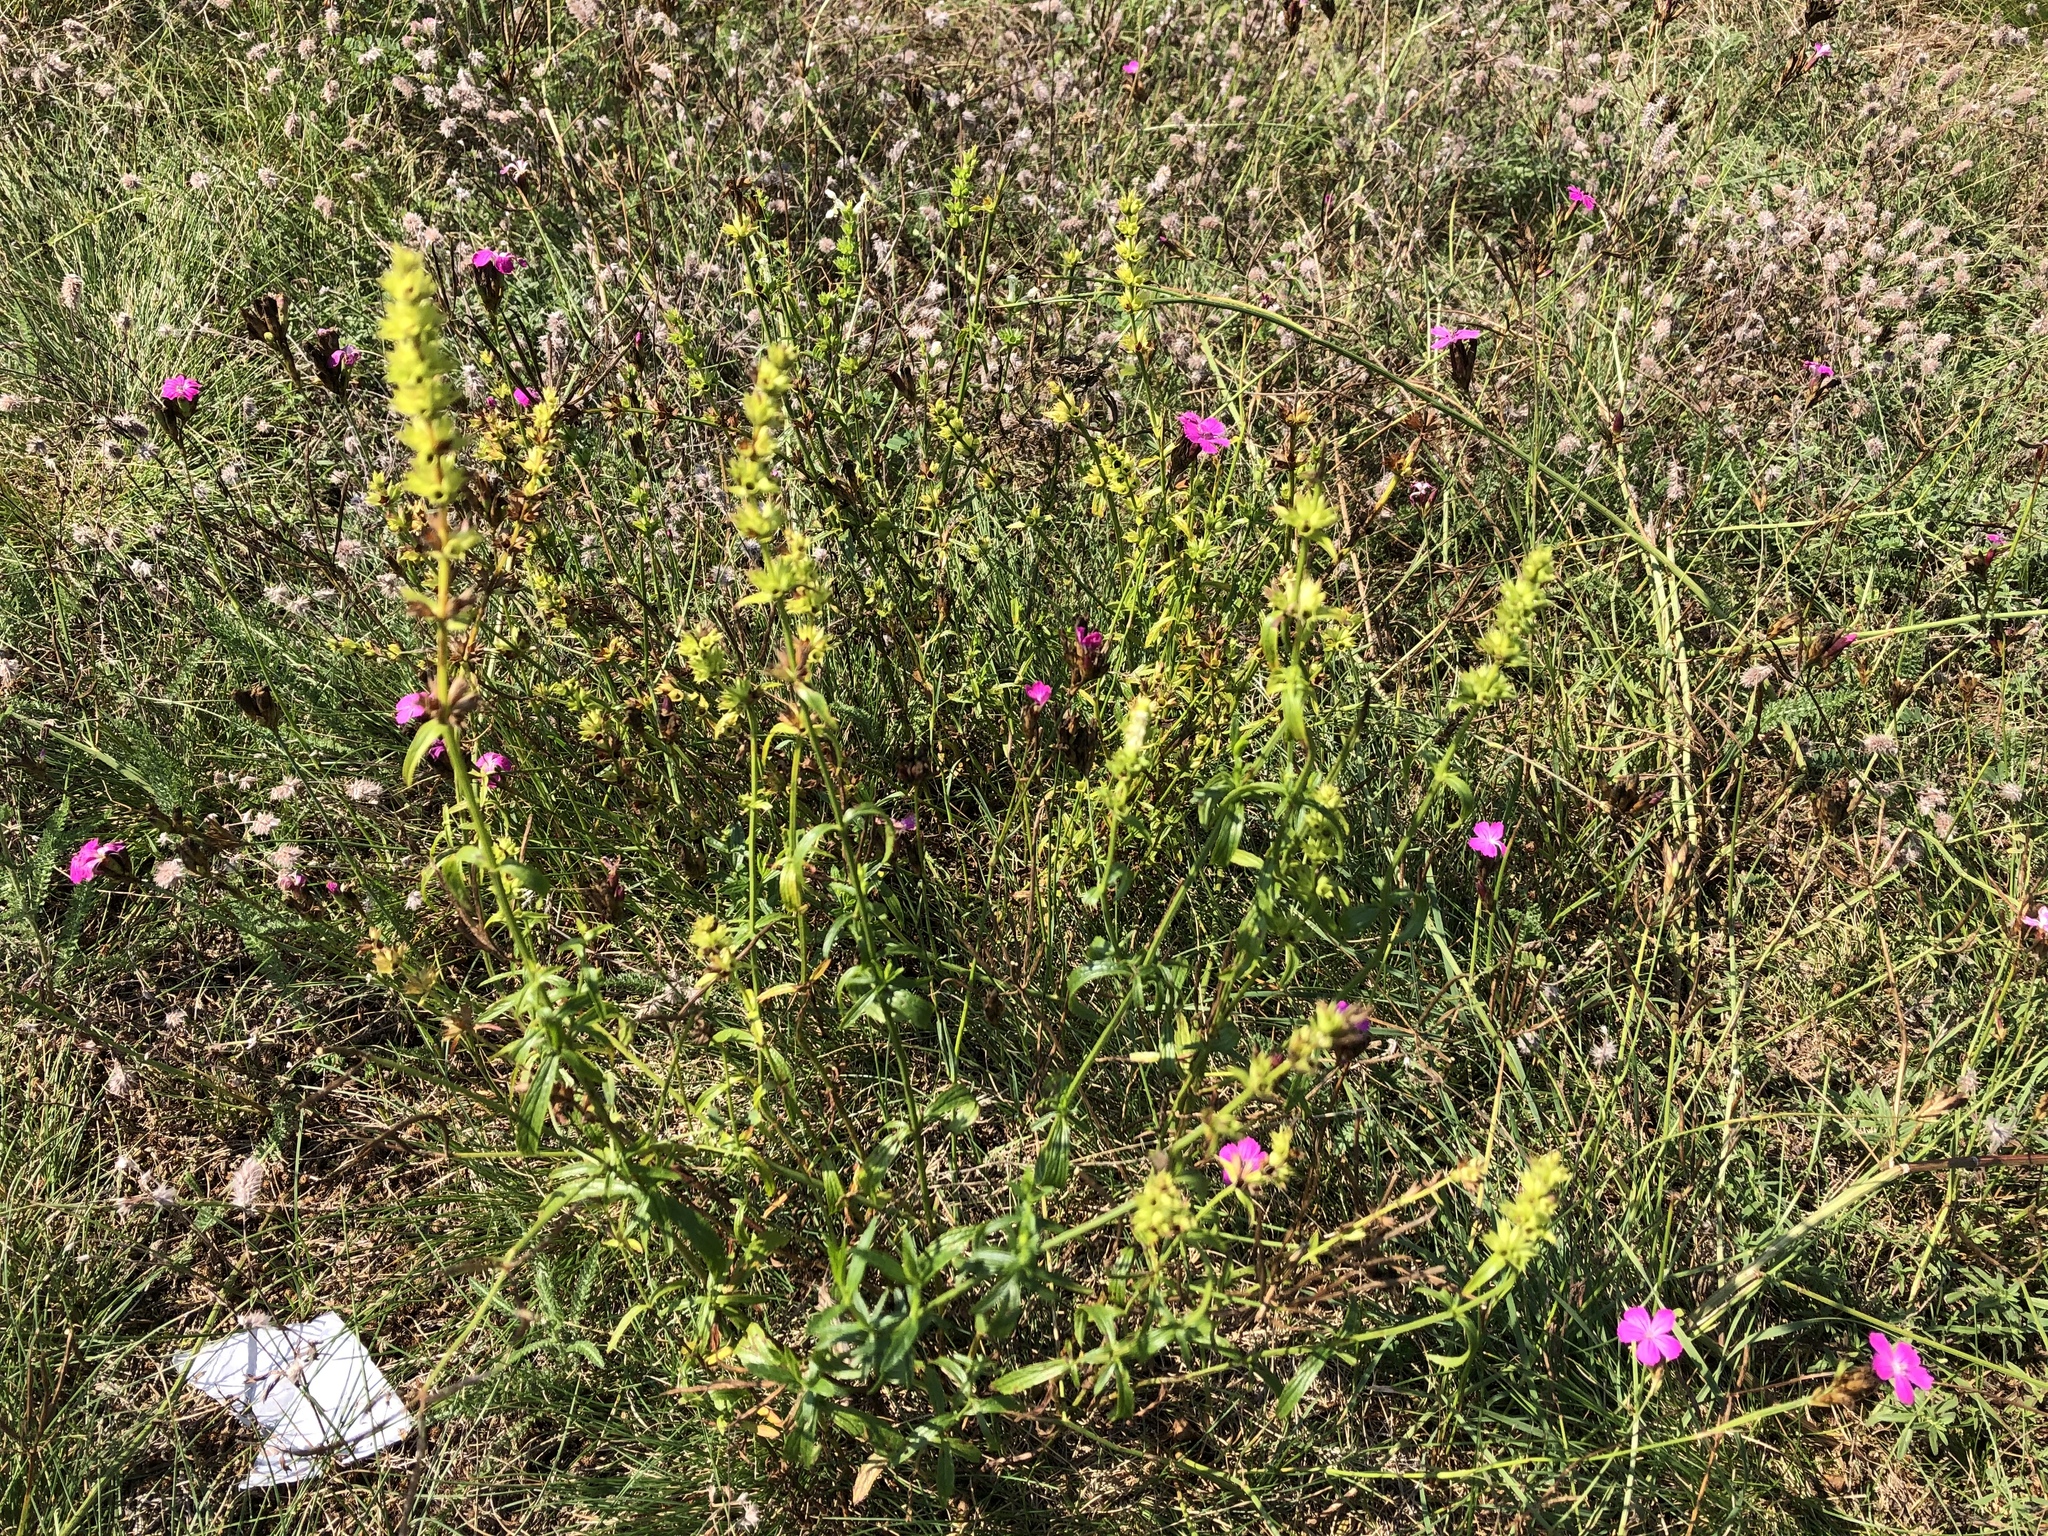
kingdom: Plantae
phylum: Tracheophyta
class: Magnoliopsida
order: Lamiales
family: Lamiaceae
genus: Stachys
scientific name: Stachys recta
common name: Perennial yellow-woundwort
